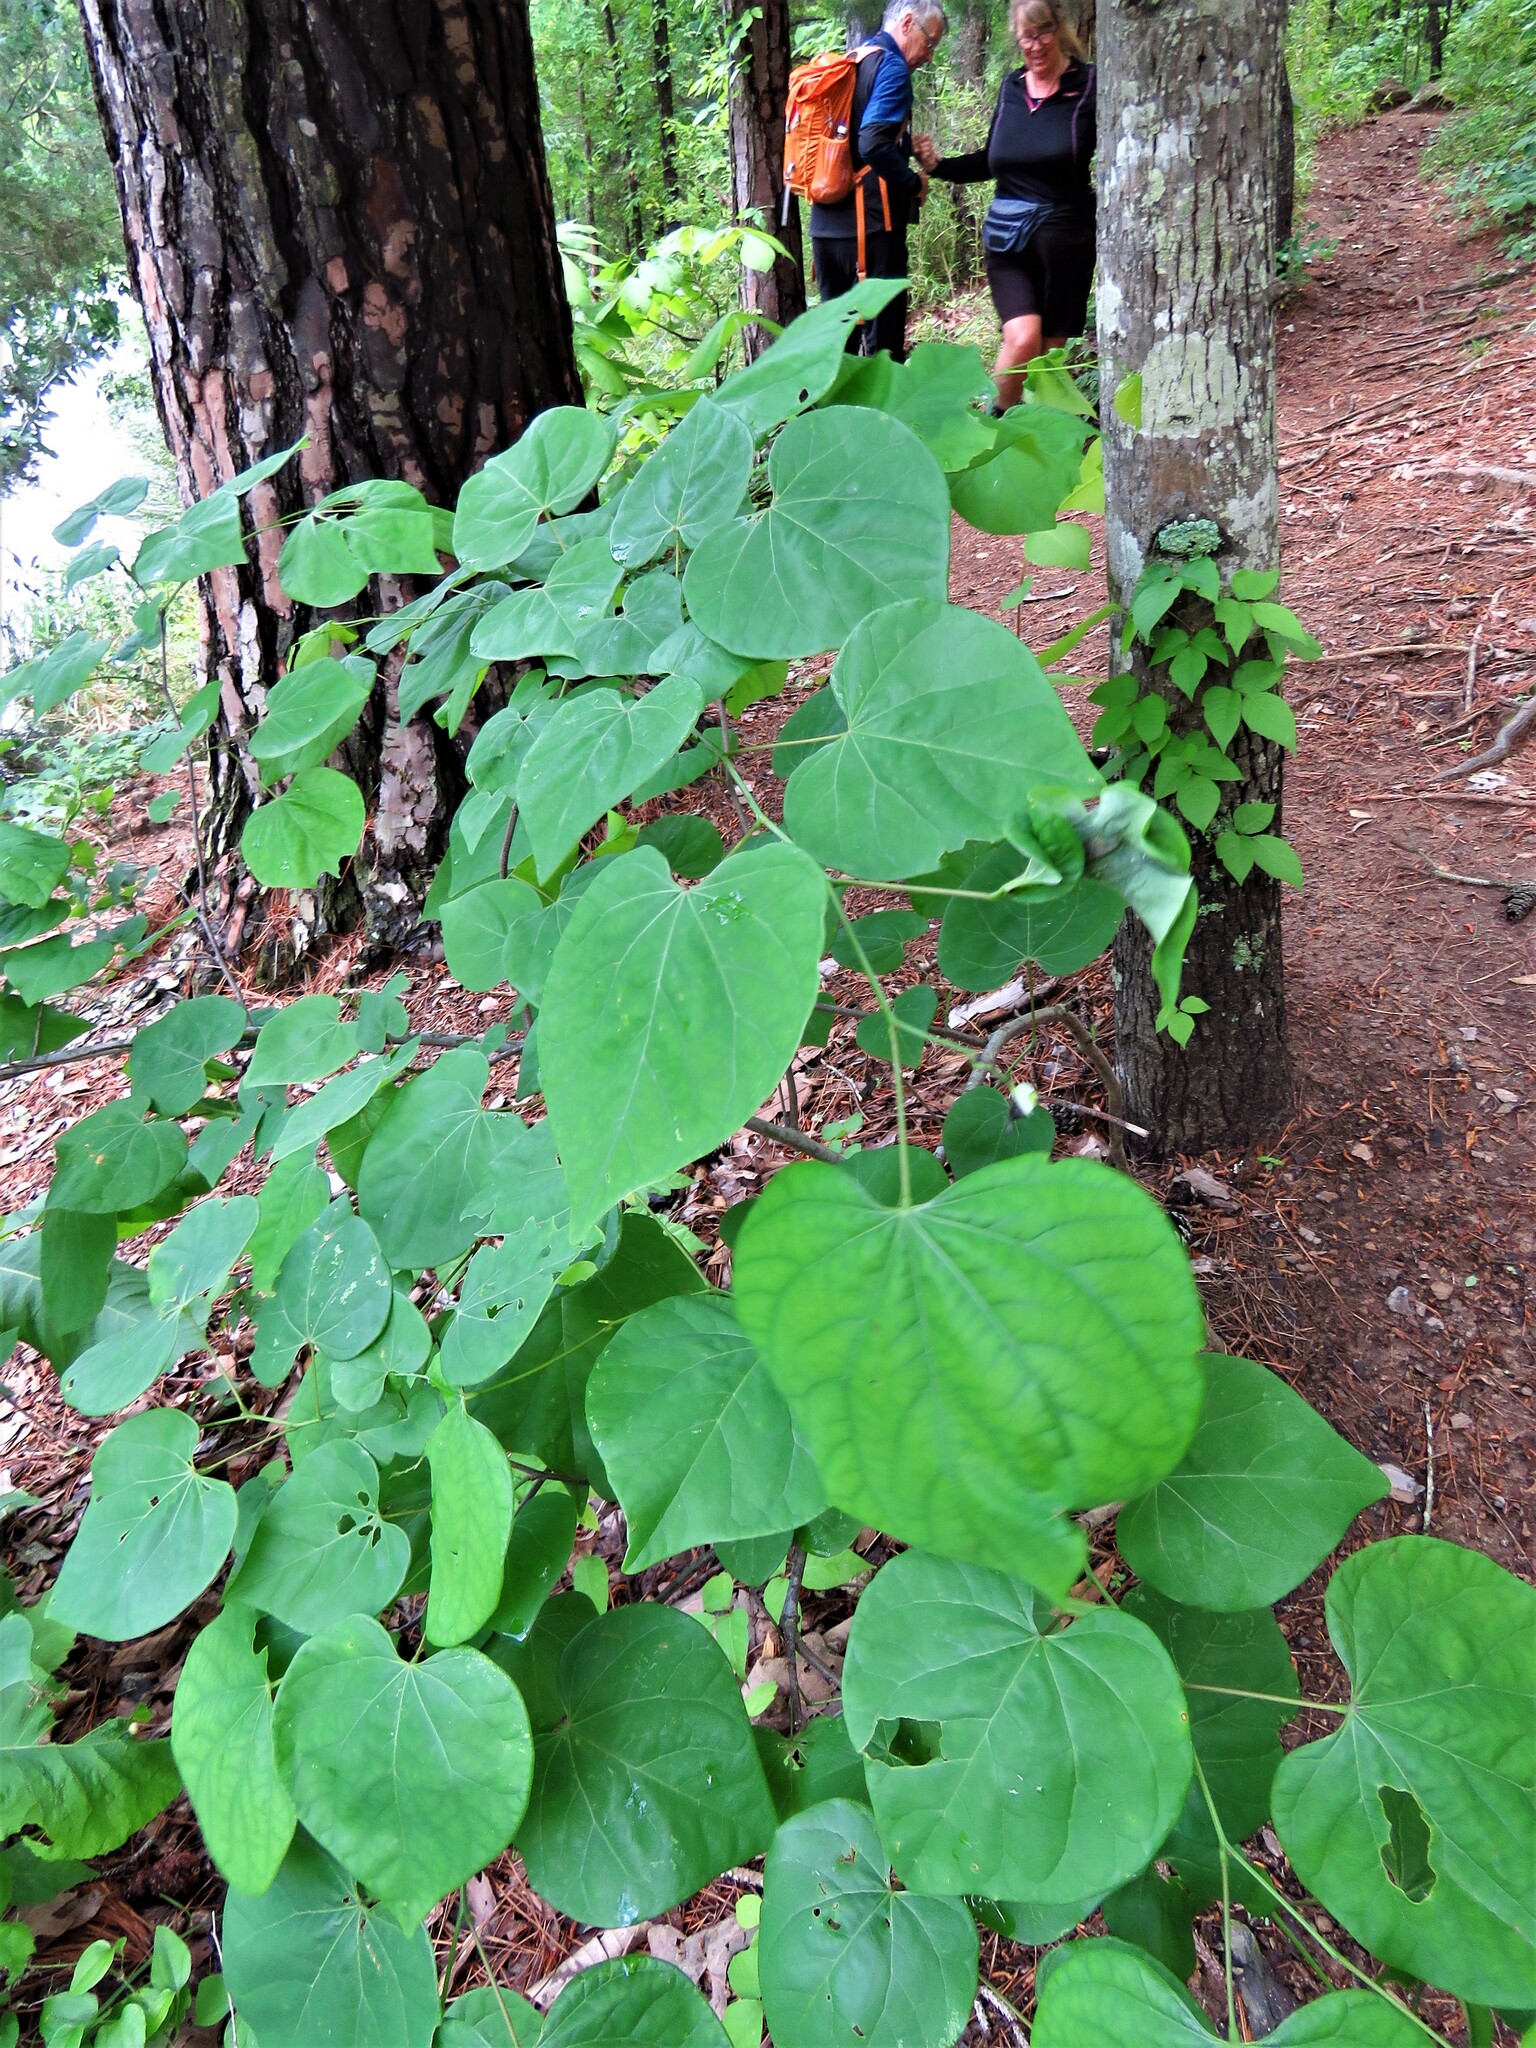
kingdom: Plantae
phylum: Tracheophyta
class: Magnoliopsida
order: Fabales
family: Fabaceae
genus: Cercis
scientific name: Cercis canadensis
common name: Eastern redbud
